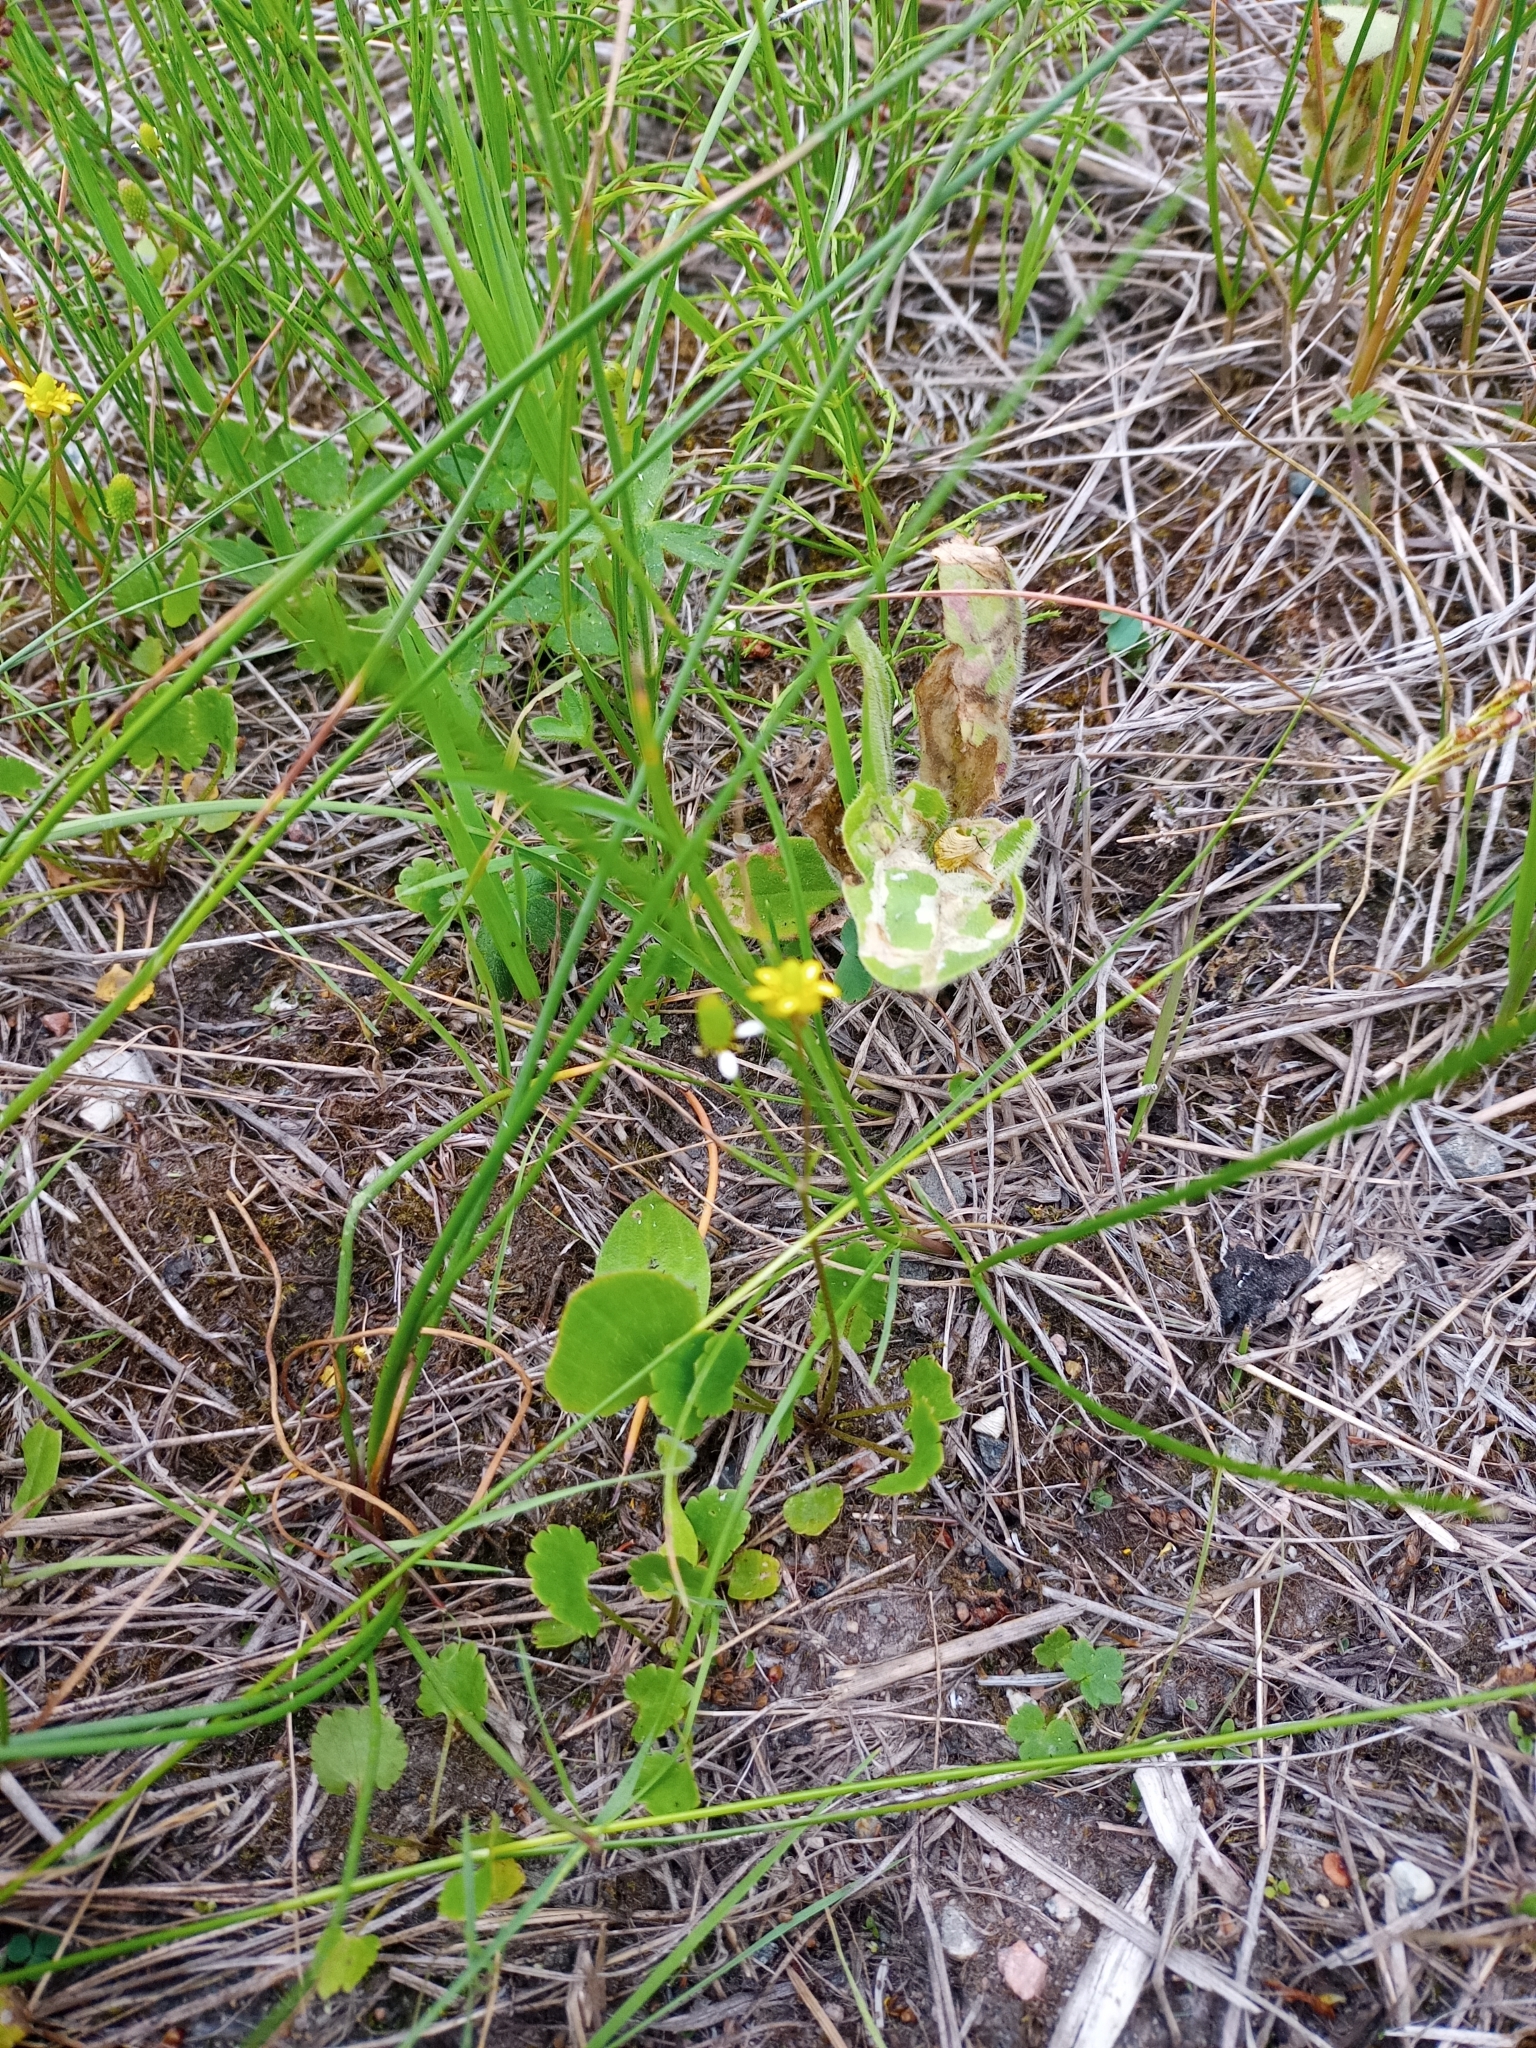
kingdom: Plantae
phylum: Tracheophyta
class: Magnoliopsida
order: Ranunculales
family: Ranunculaceae
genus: Halerpestes
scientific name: Halerpestes cymbalaria
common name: Seaside crowfoot
